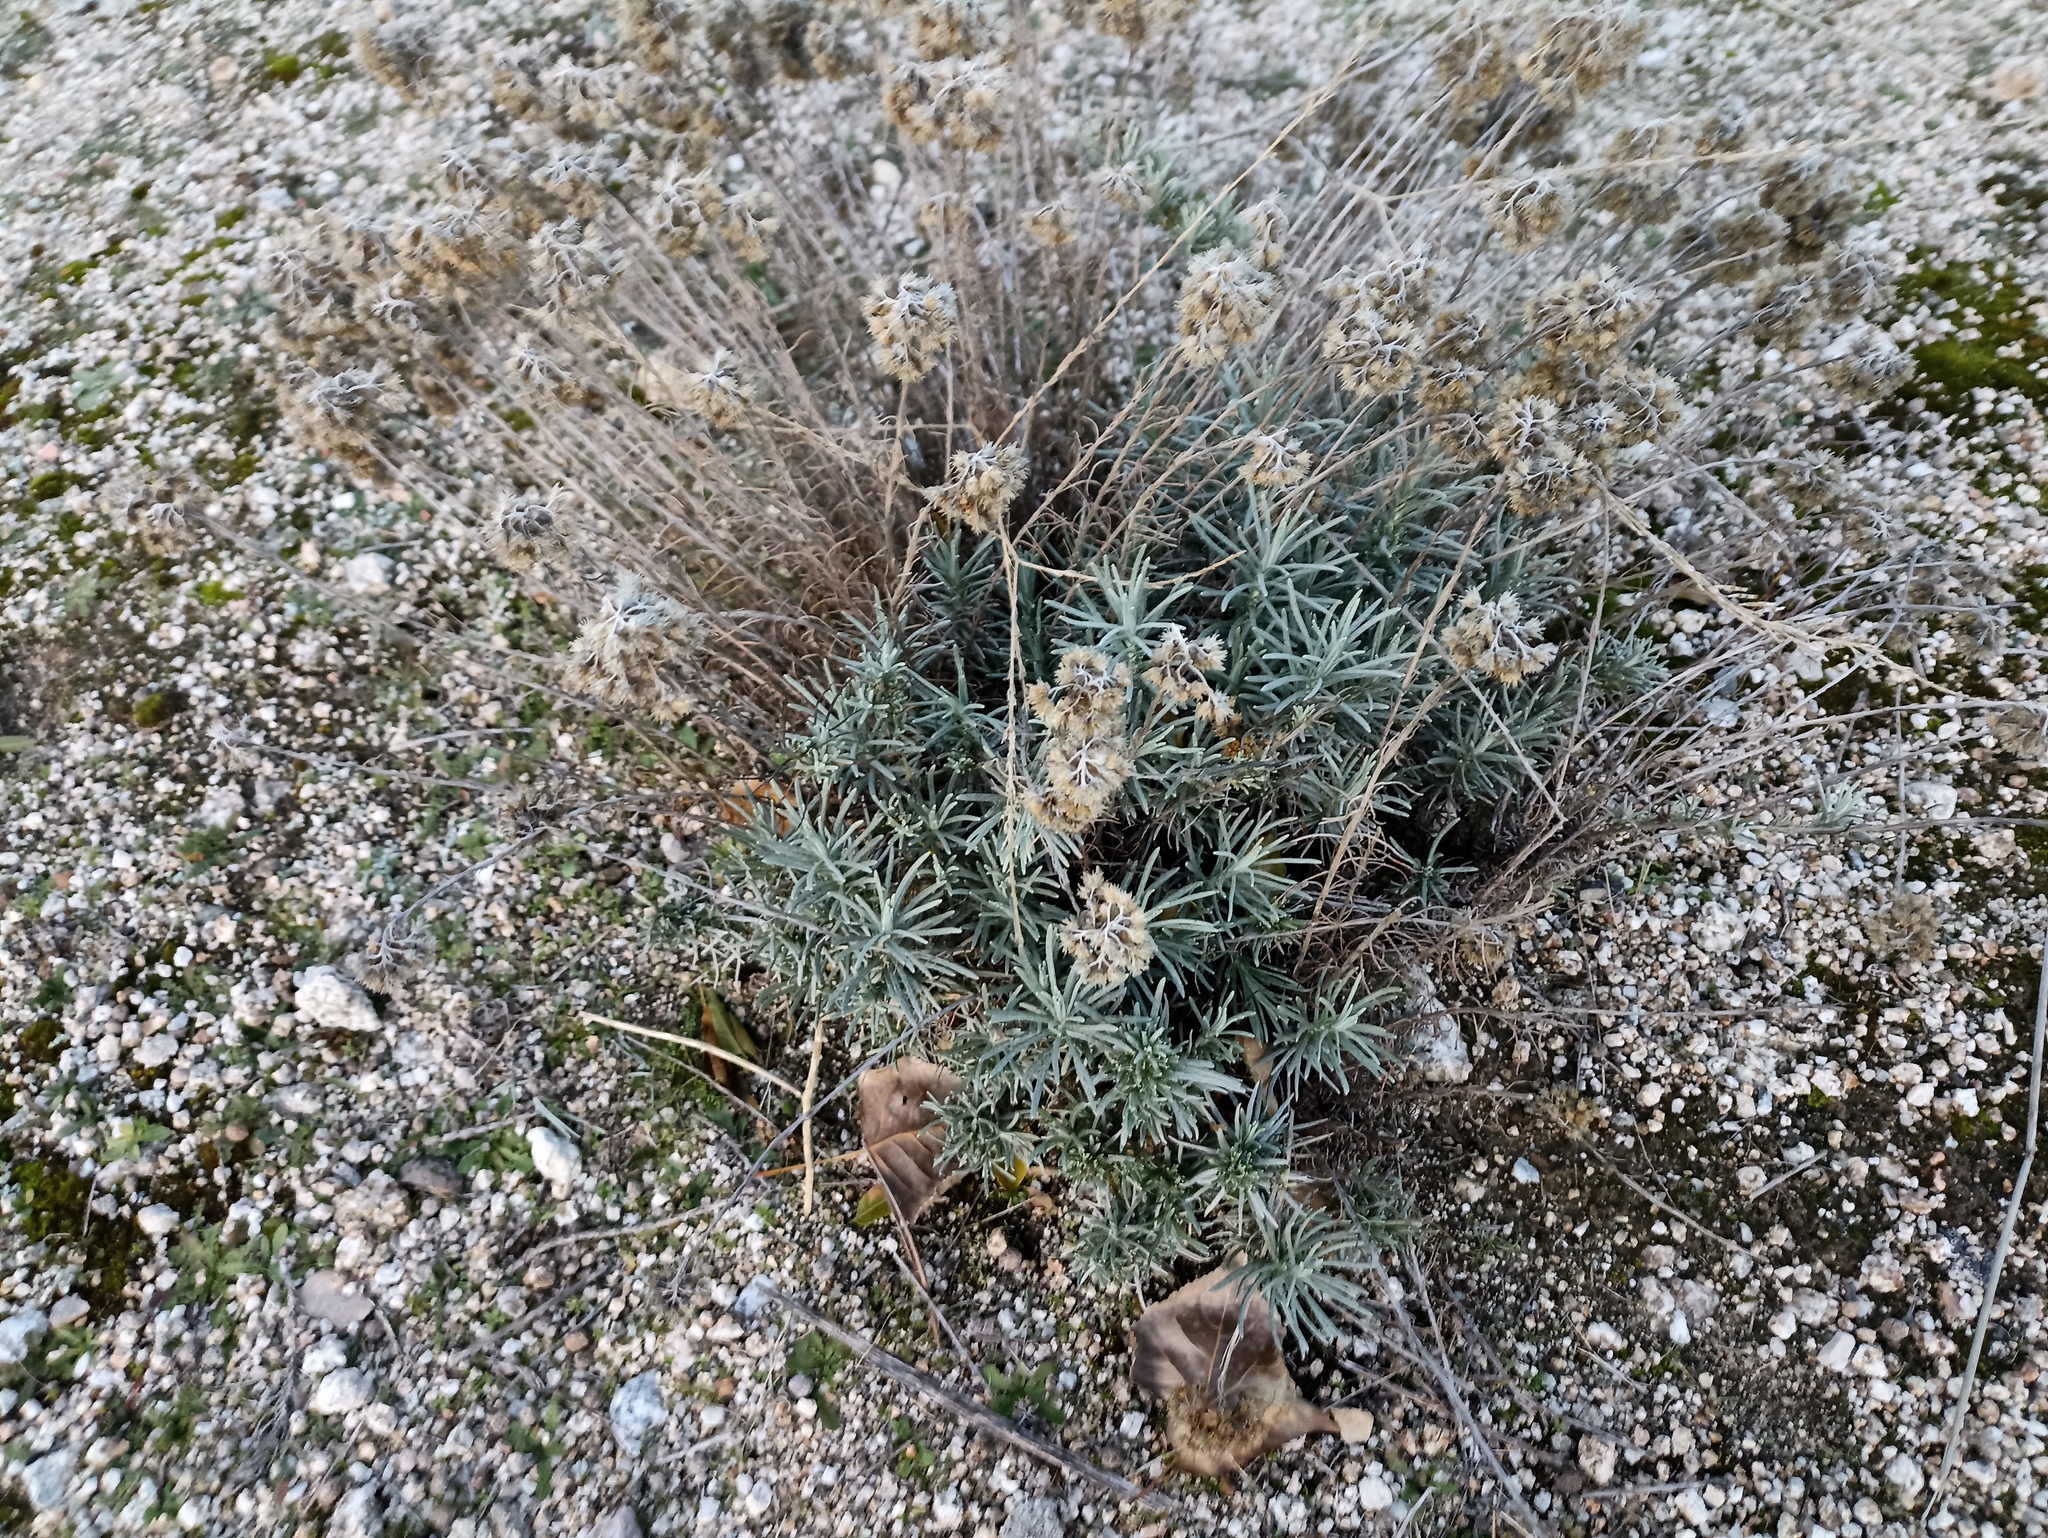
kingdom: Plantae
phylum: Tracheophyta
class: Magnoliopsida
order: Asterales
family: Asteraceae
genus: Helichrysum
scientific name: Helichrysum stoechas
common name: Goldilocks
